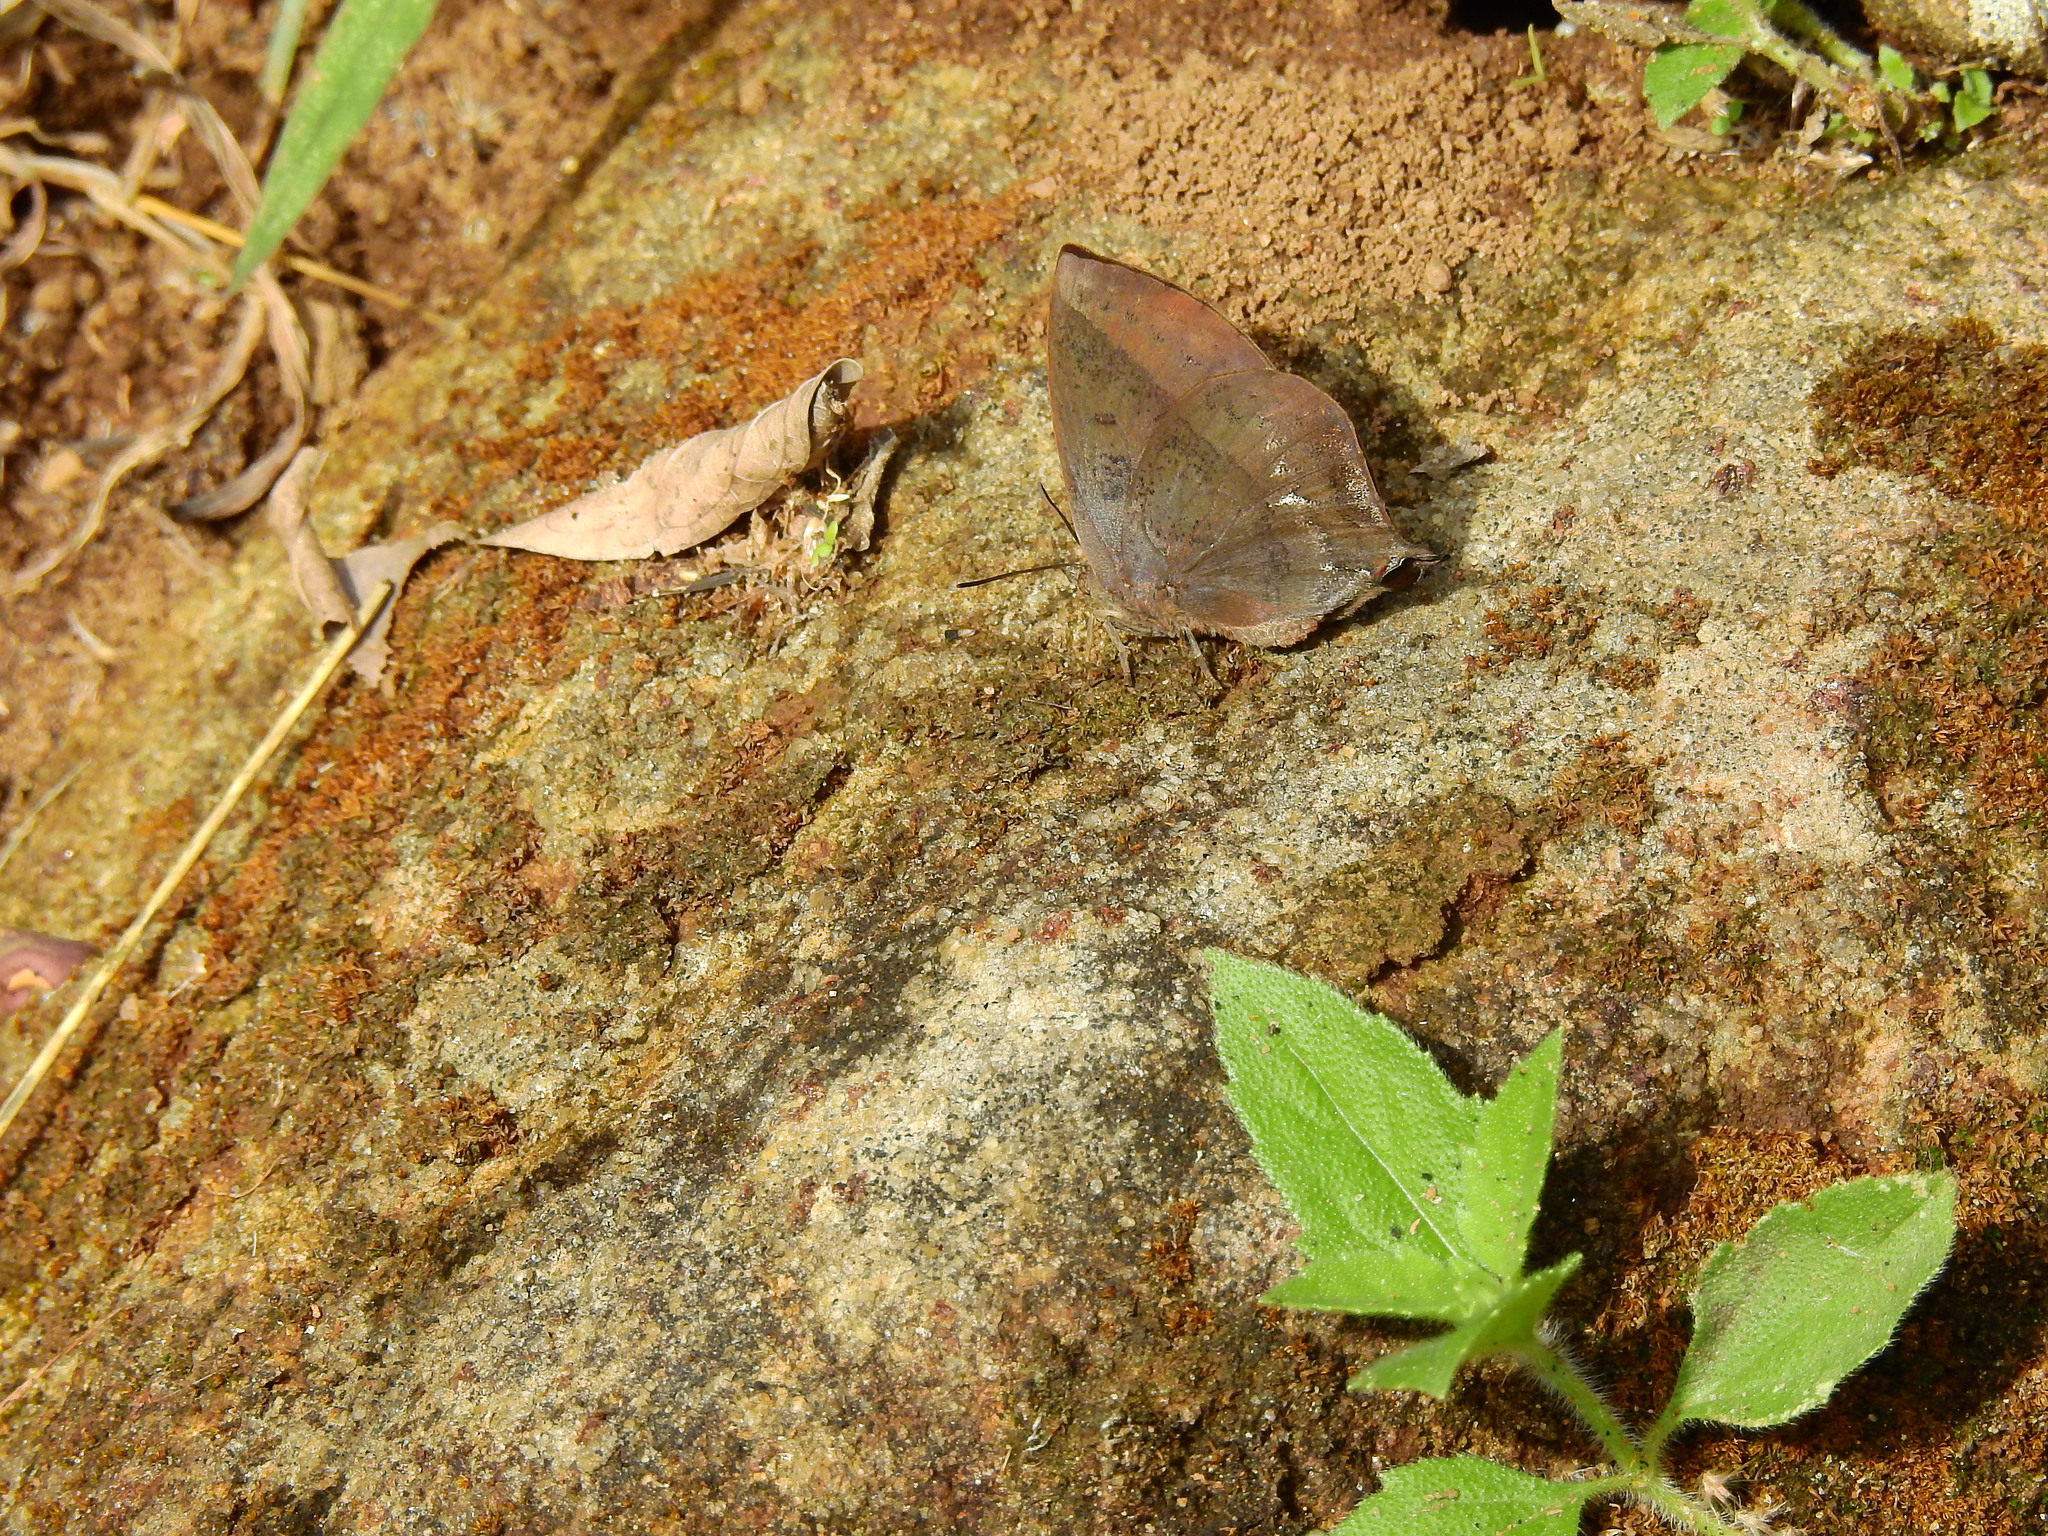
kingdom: Animalia
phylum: Arthropoda
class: Insecta
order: Lepidoptera
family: Lycaenidae
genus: Amblypodia
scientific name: Amblypodia anita
